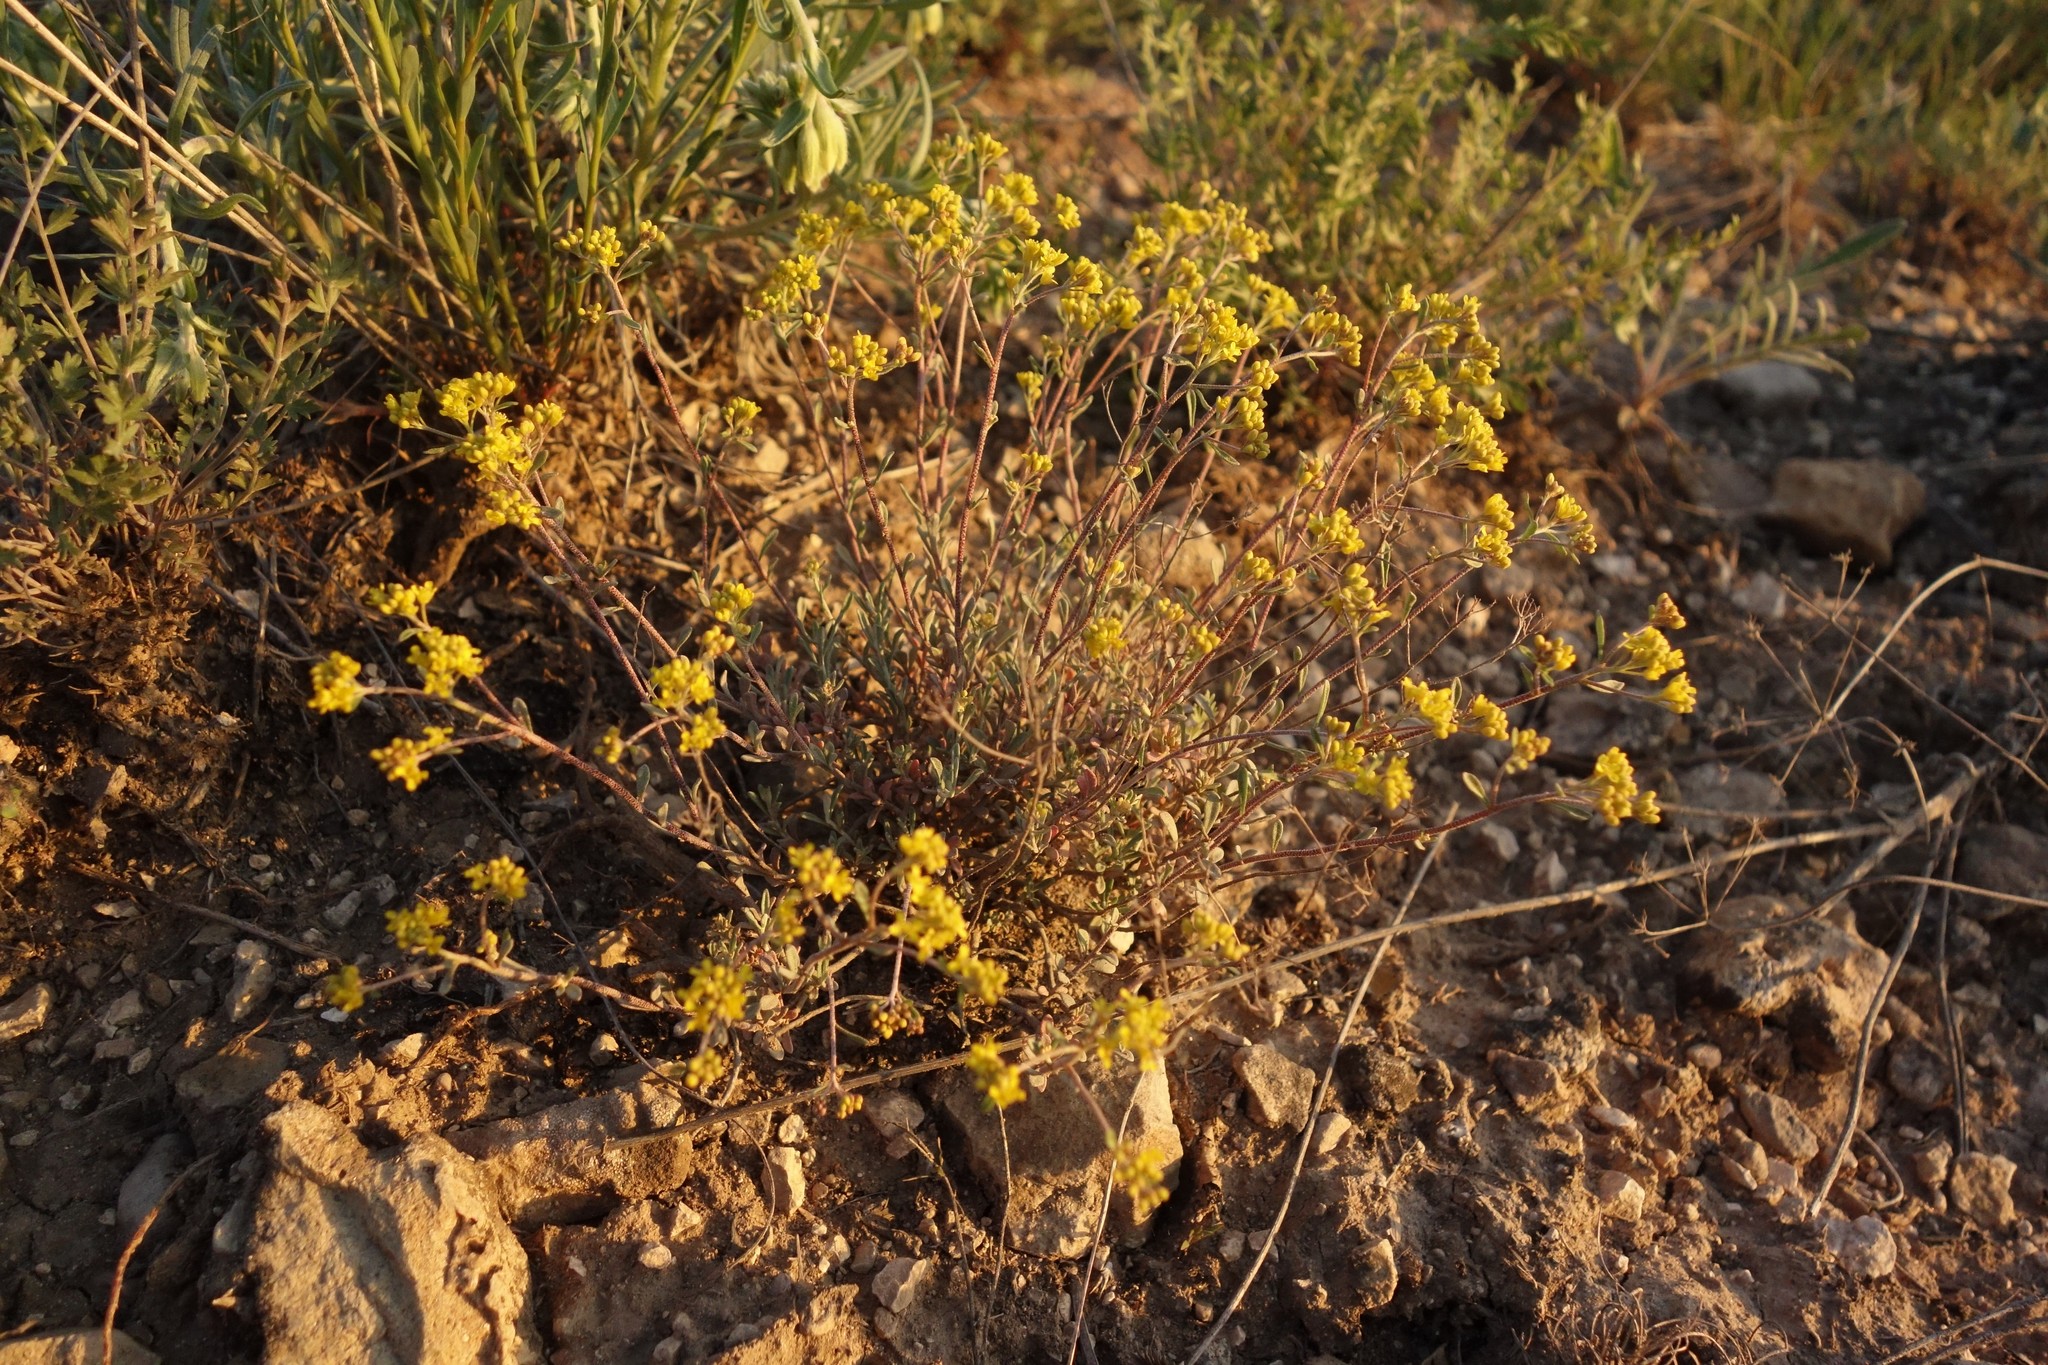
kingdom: Plantae
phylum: Tracheophyta
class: Magnoliopsida
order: Brassicales
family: Brassicaceae
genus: Odontarrhena
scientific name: Odontarrhena tortuosa
